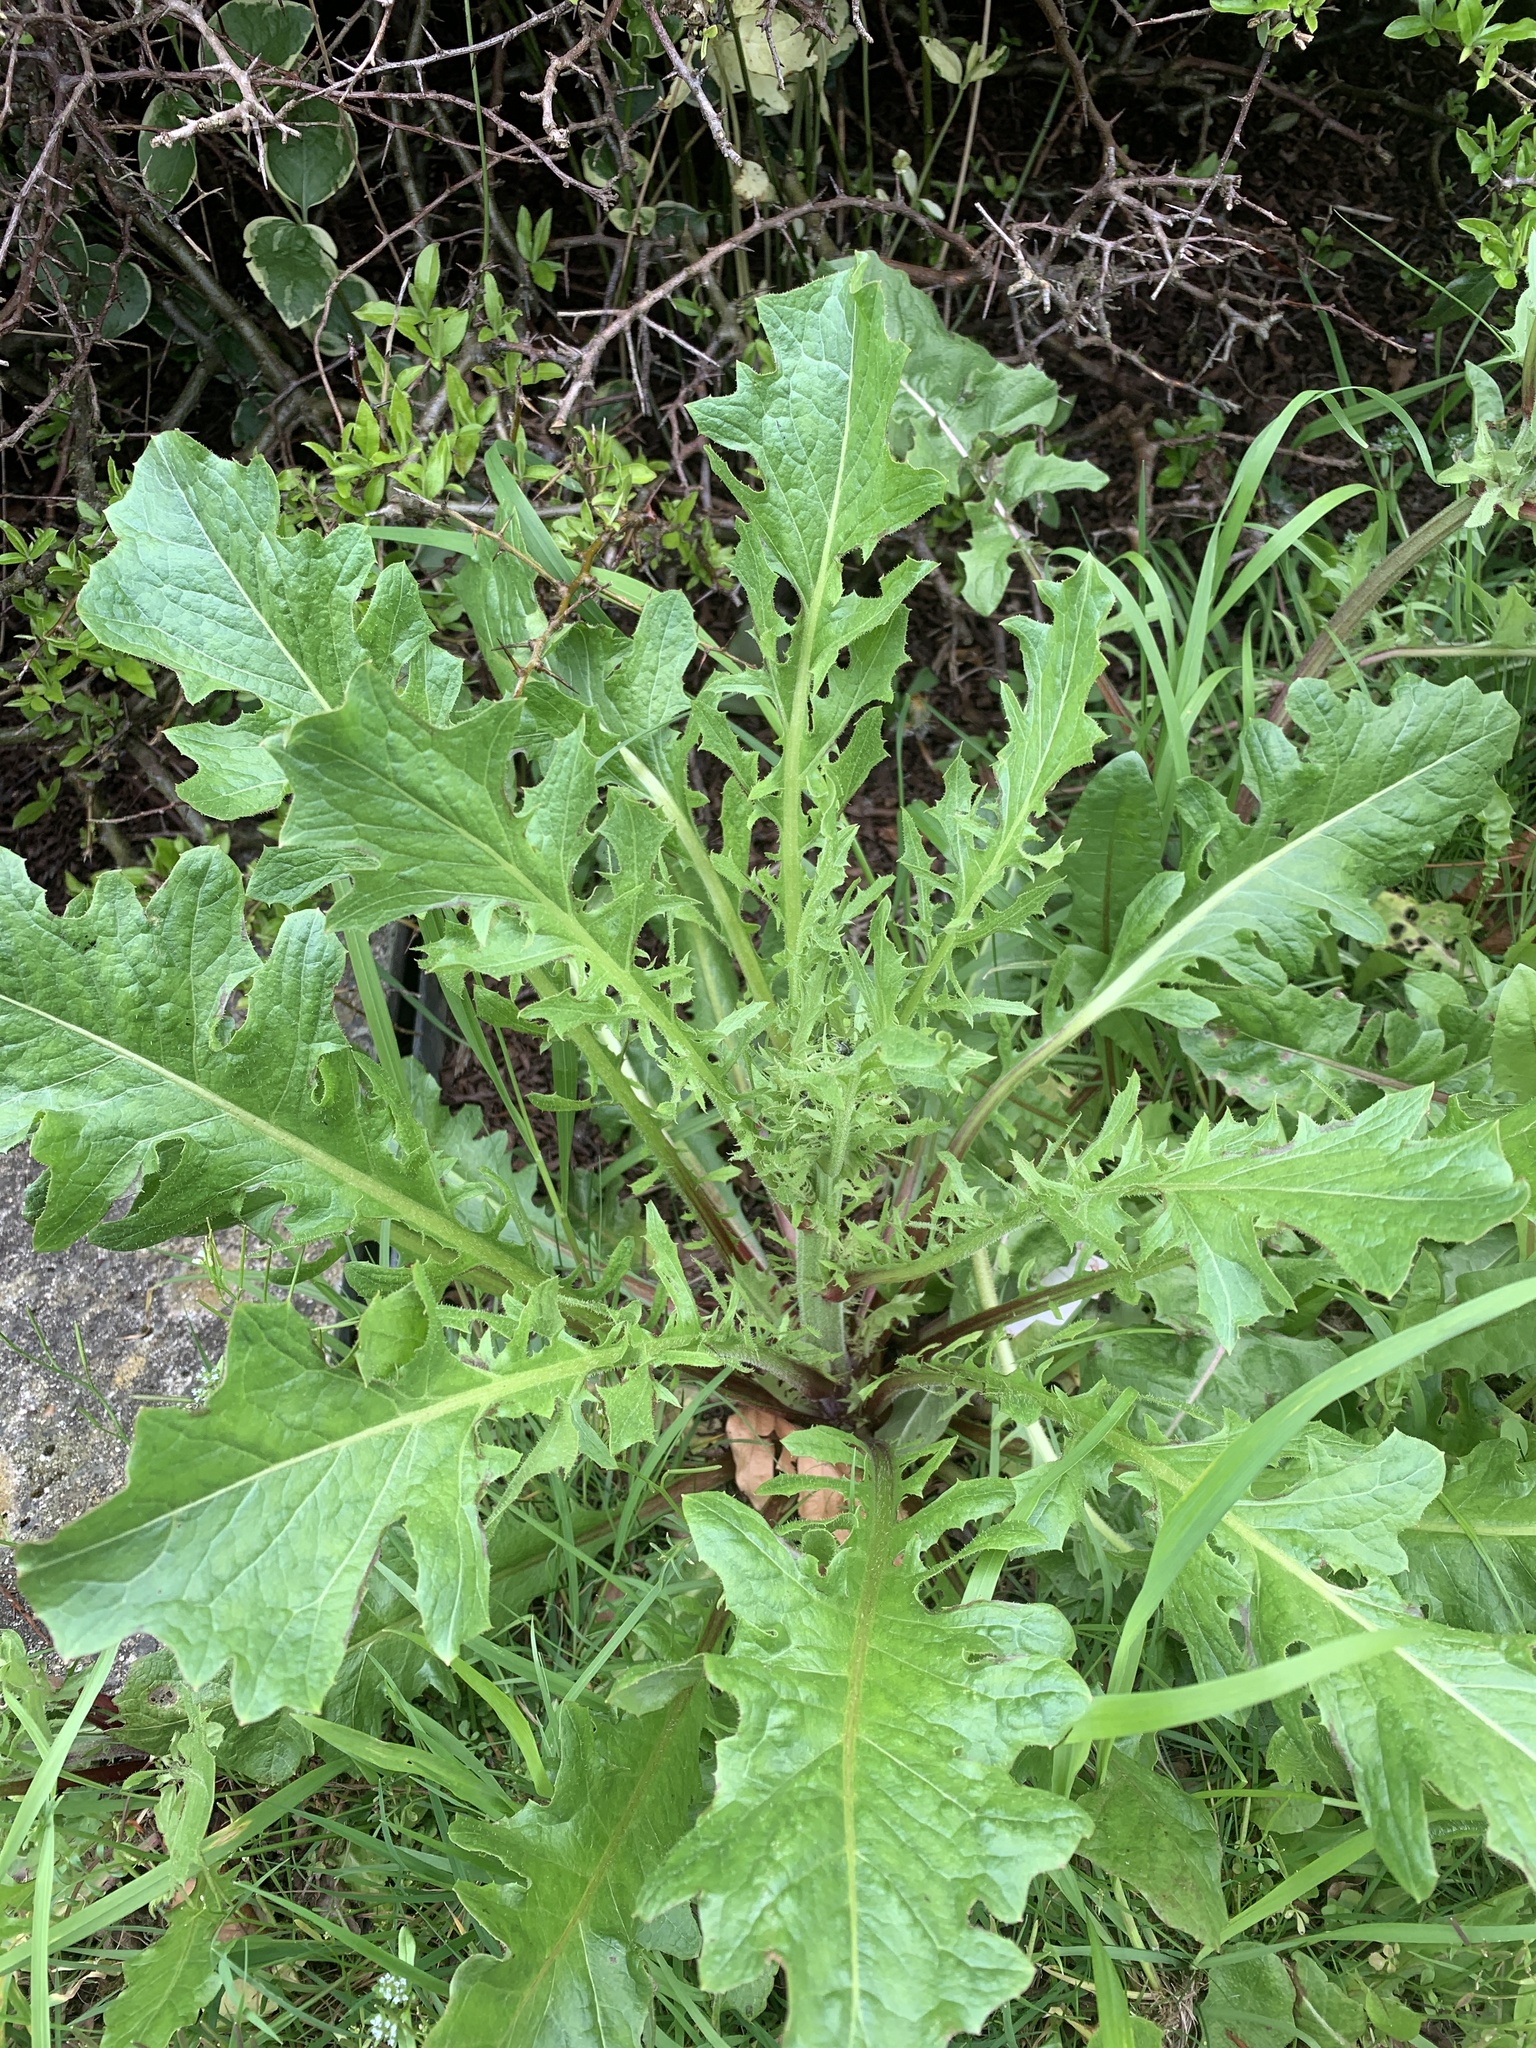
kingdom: Plantae
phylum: Tracheophyta
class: Magnoliopsida
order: Asterales
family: Asteraceae
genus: Jacobaea
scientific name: Jacobaea vulgaris
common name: Stinking willie
